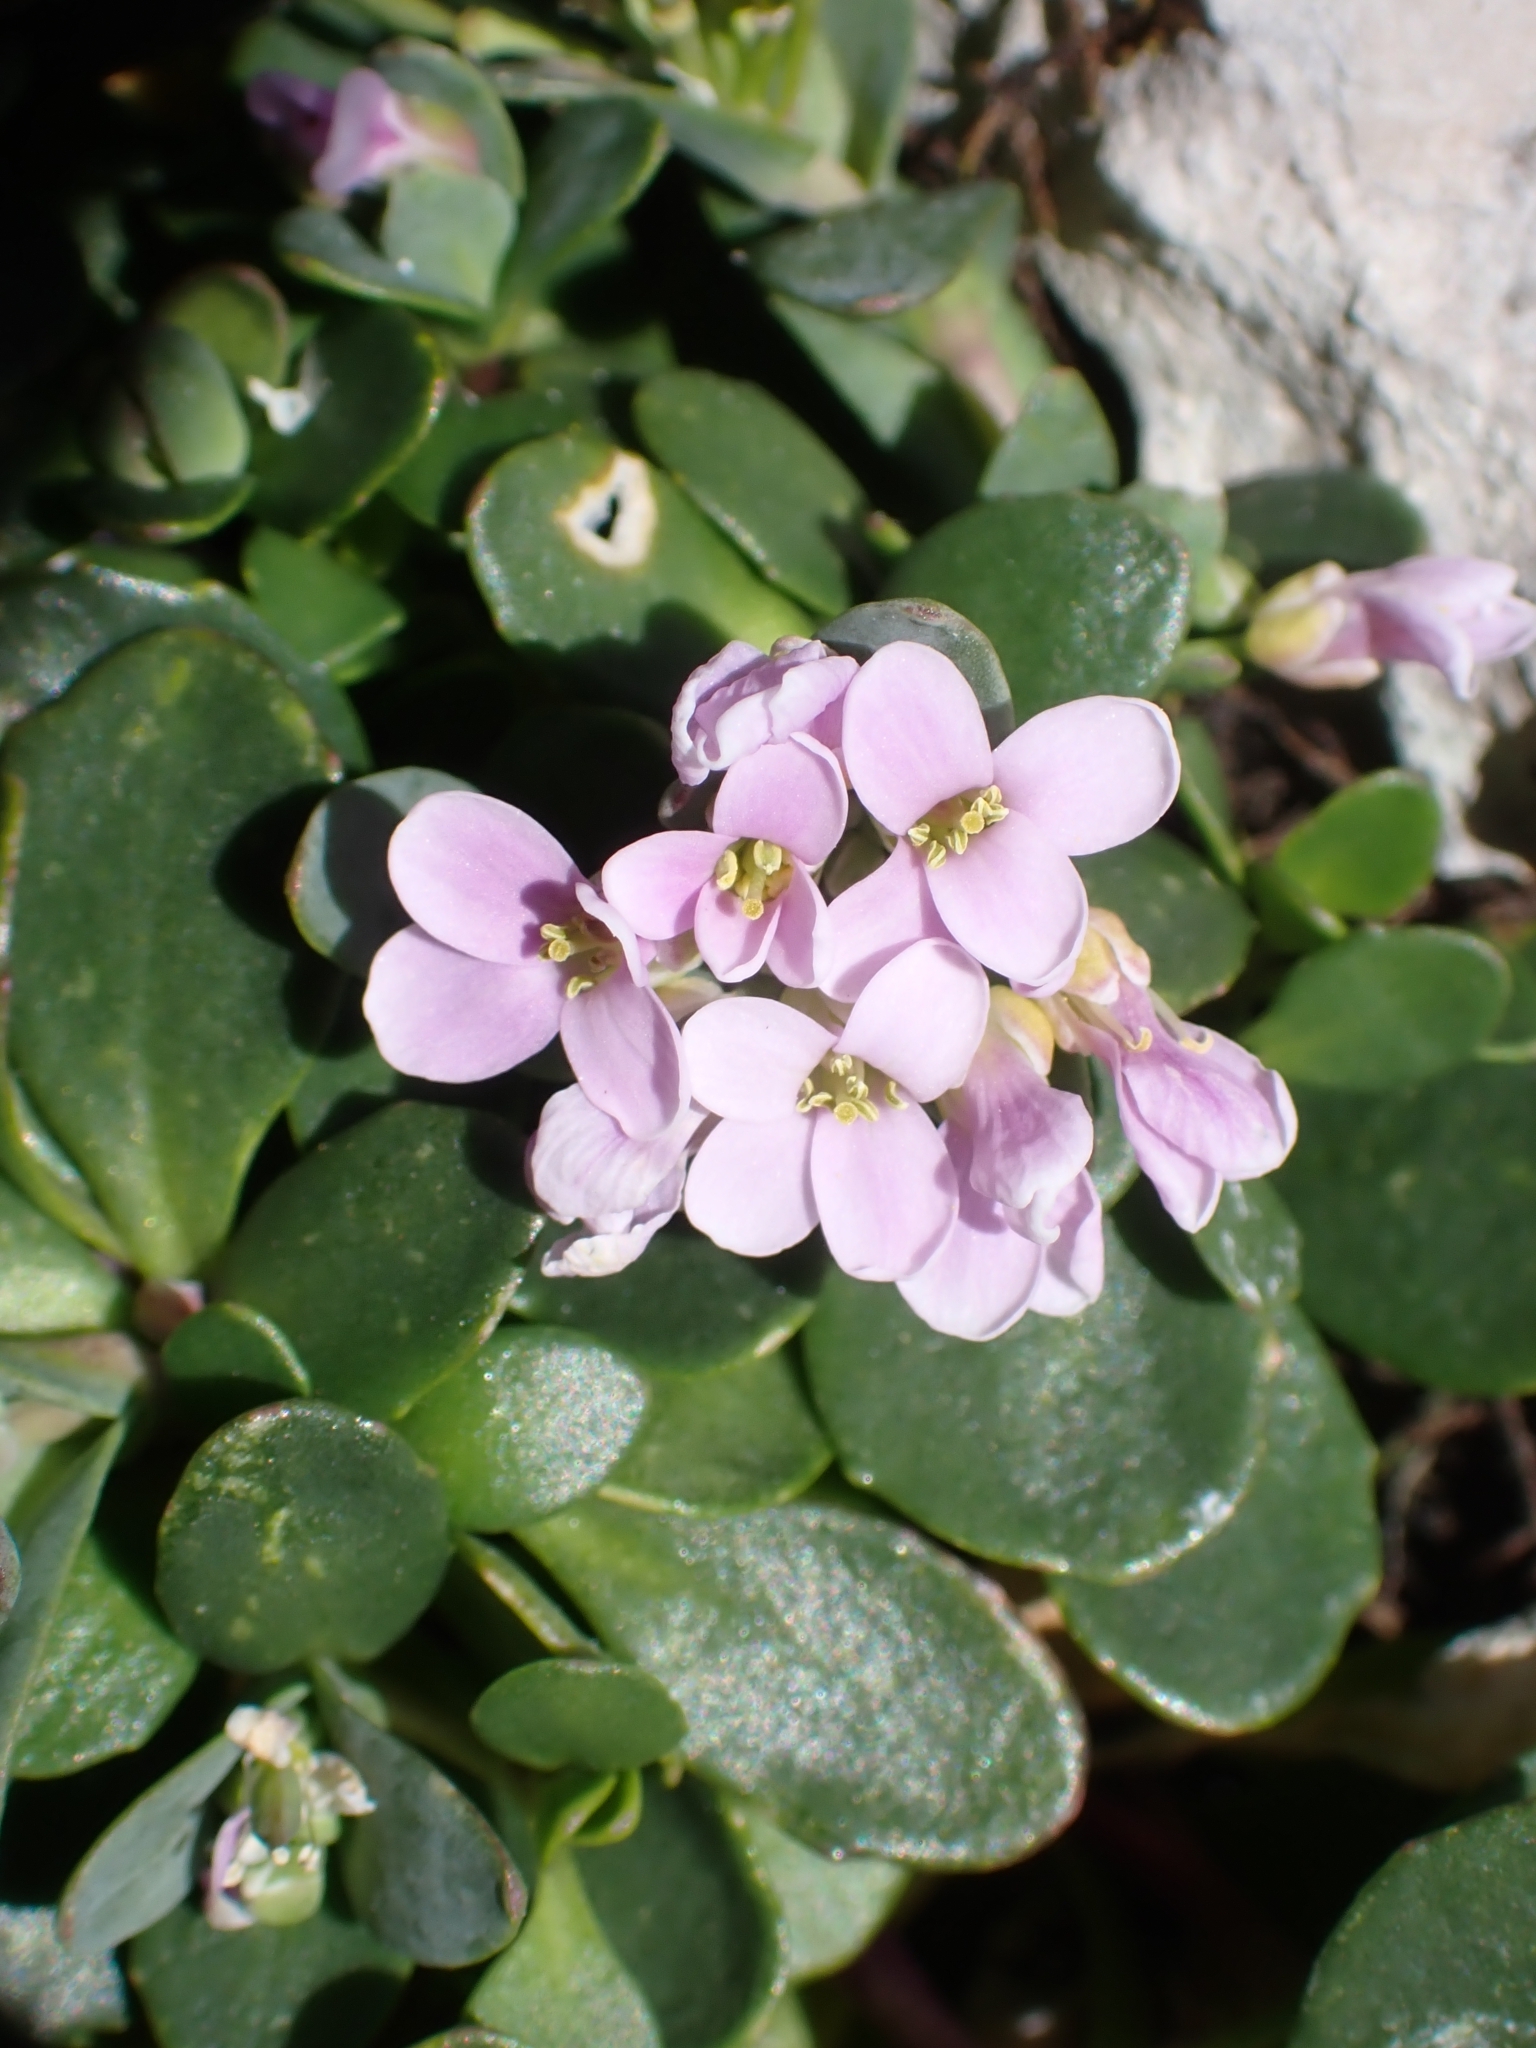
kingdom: Plantae
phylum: Tracheophyta
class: Magnoliopsida
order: Brassicales
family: Brassicaceae
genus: Noccaea
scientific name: Noccaea rotundifolia
